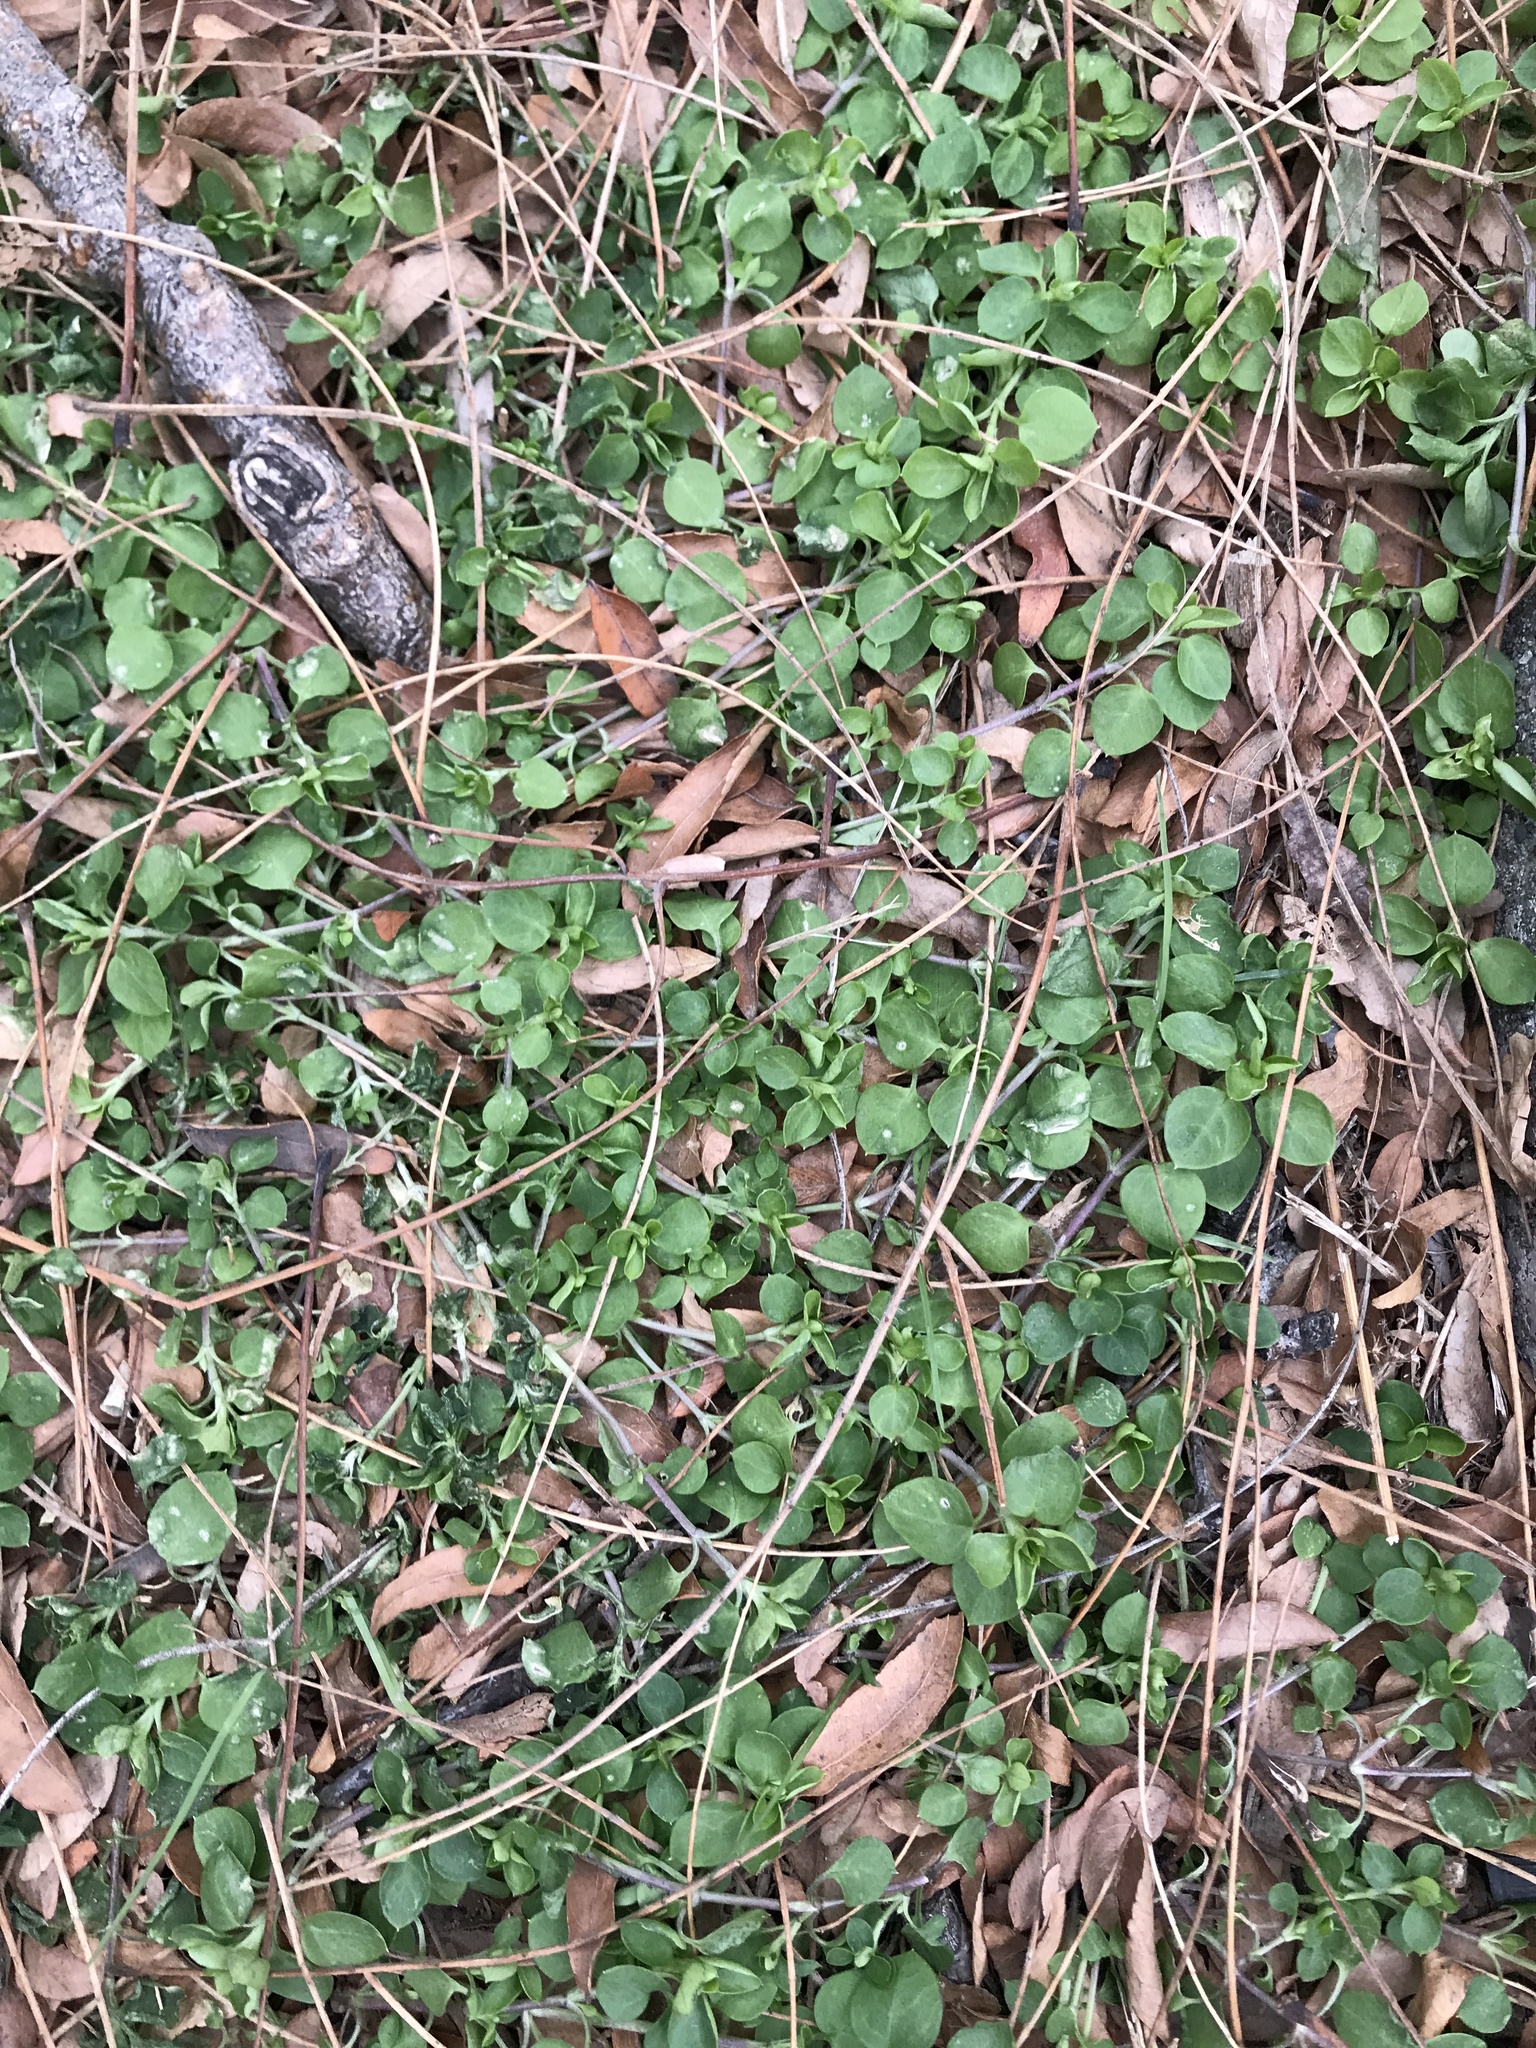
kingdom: Plantae
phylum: Tracheophyta
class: Magnoliopsida
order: Ericales
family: Primulaceae
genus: Lysimachia
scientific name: Lysimachia nummularia
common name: Moneywort
